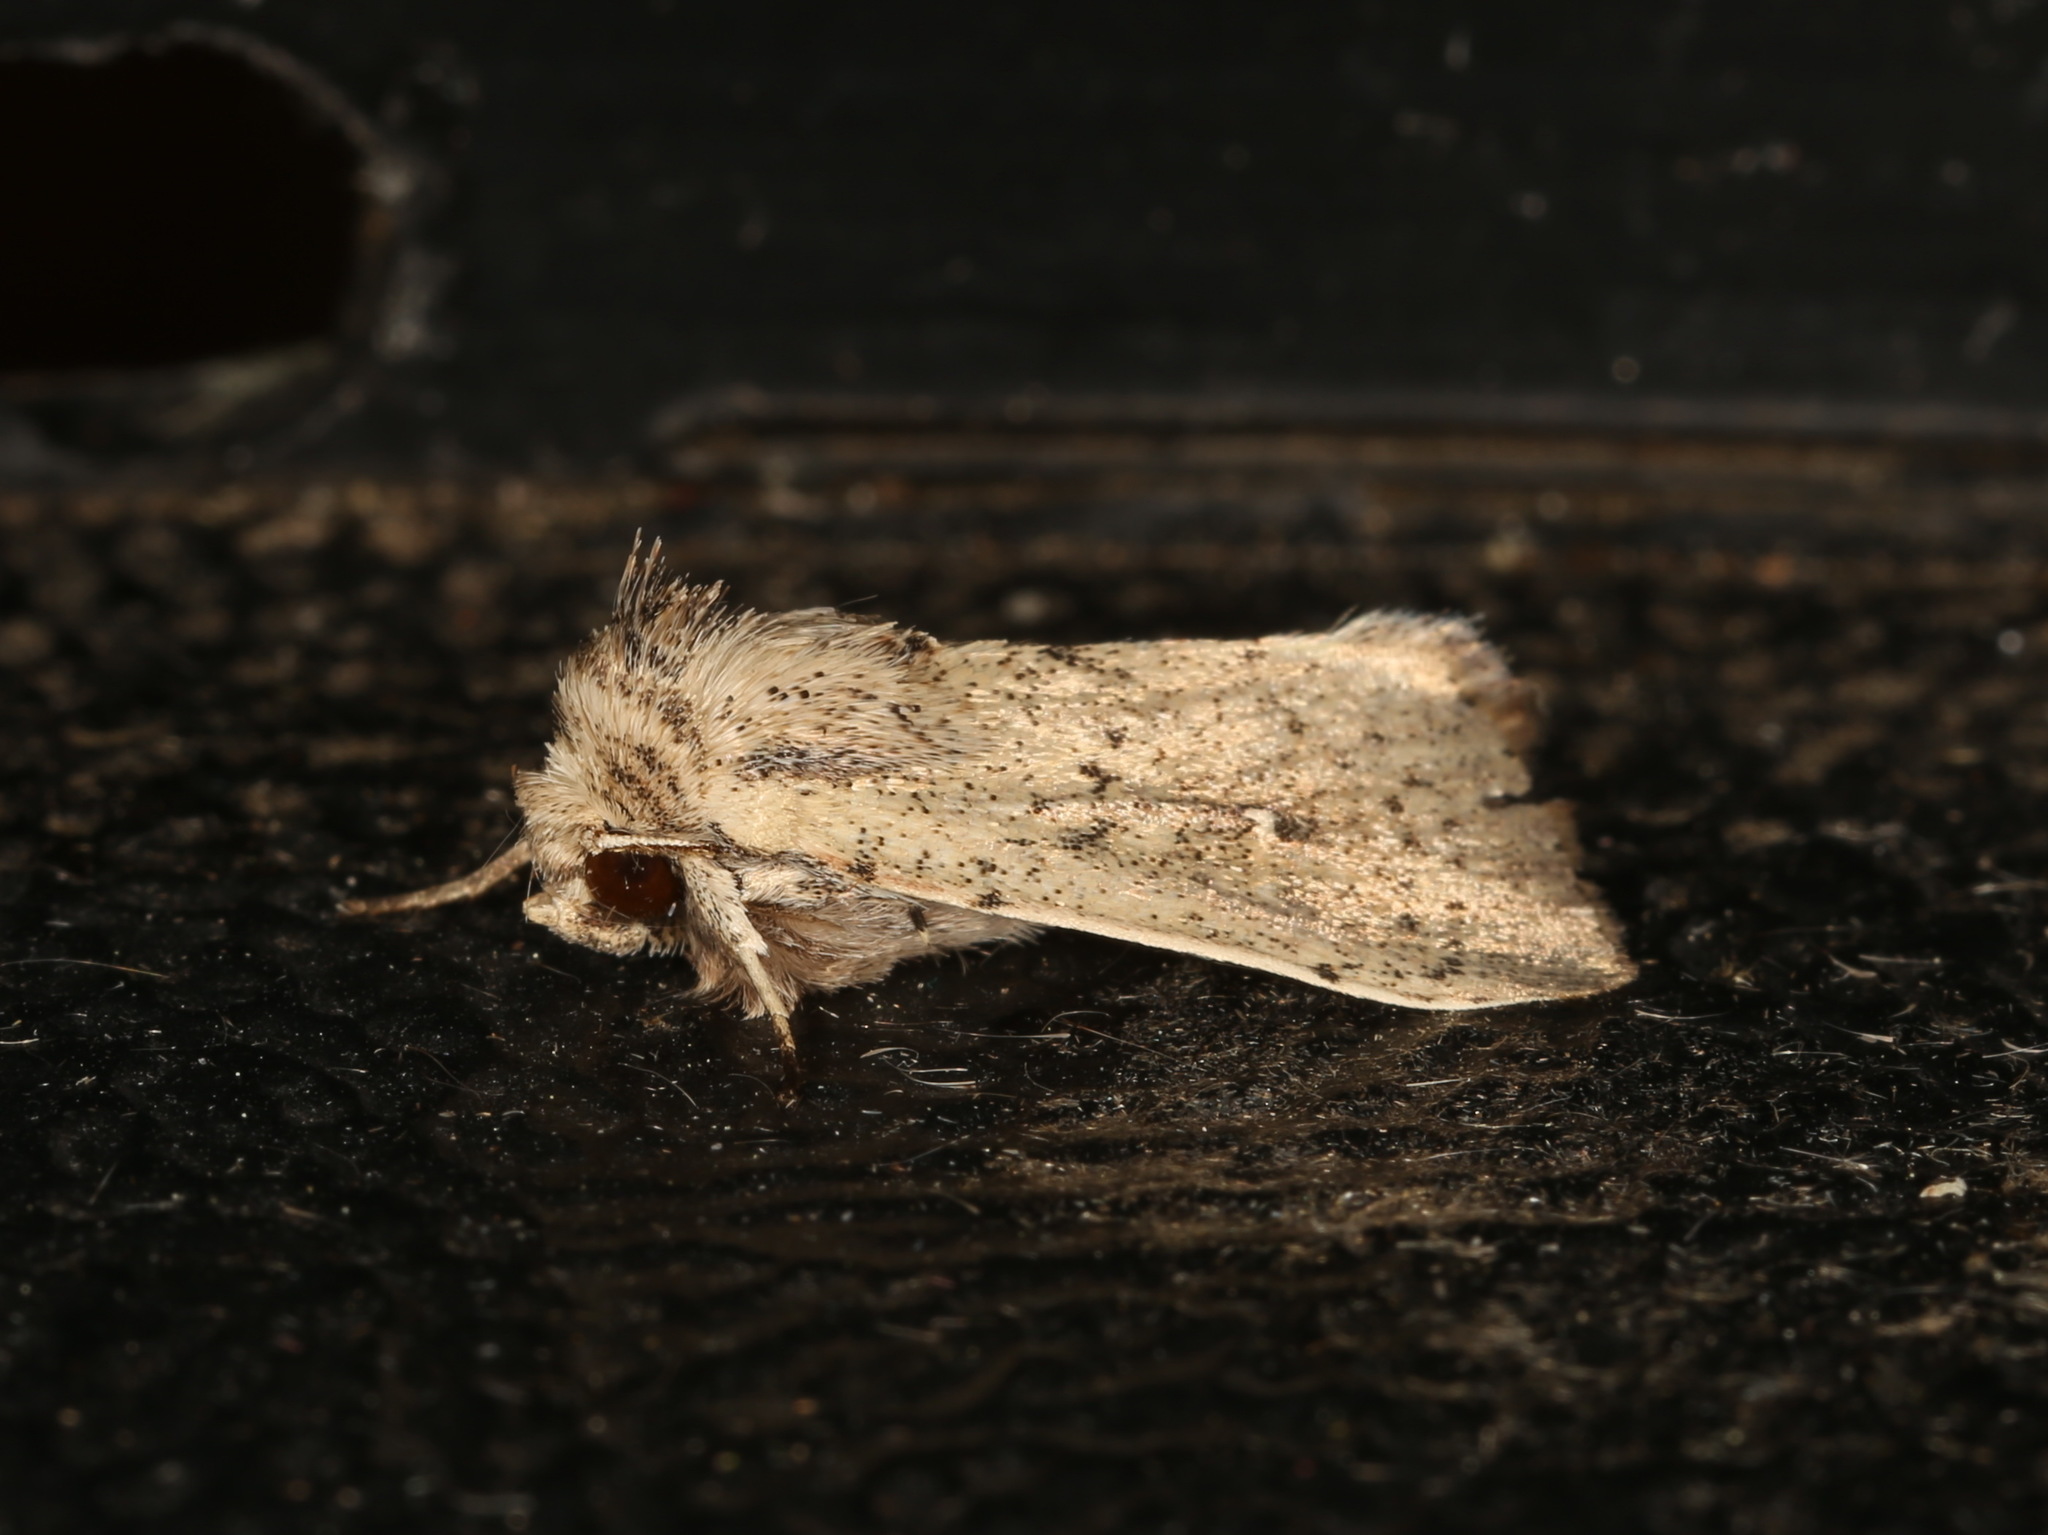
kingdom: Animalia
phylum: Arthropoda
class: Insecta
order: Lepidoptera
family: Noctuidae
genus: Leucania
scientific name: Leucania uda
